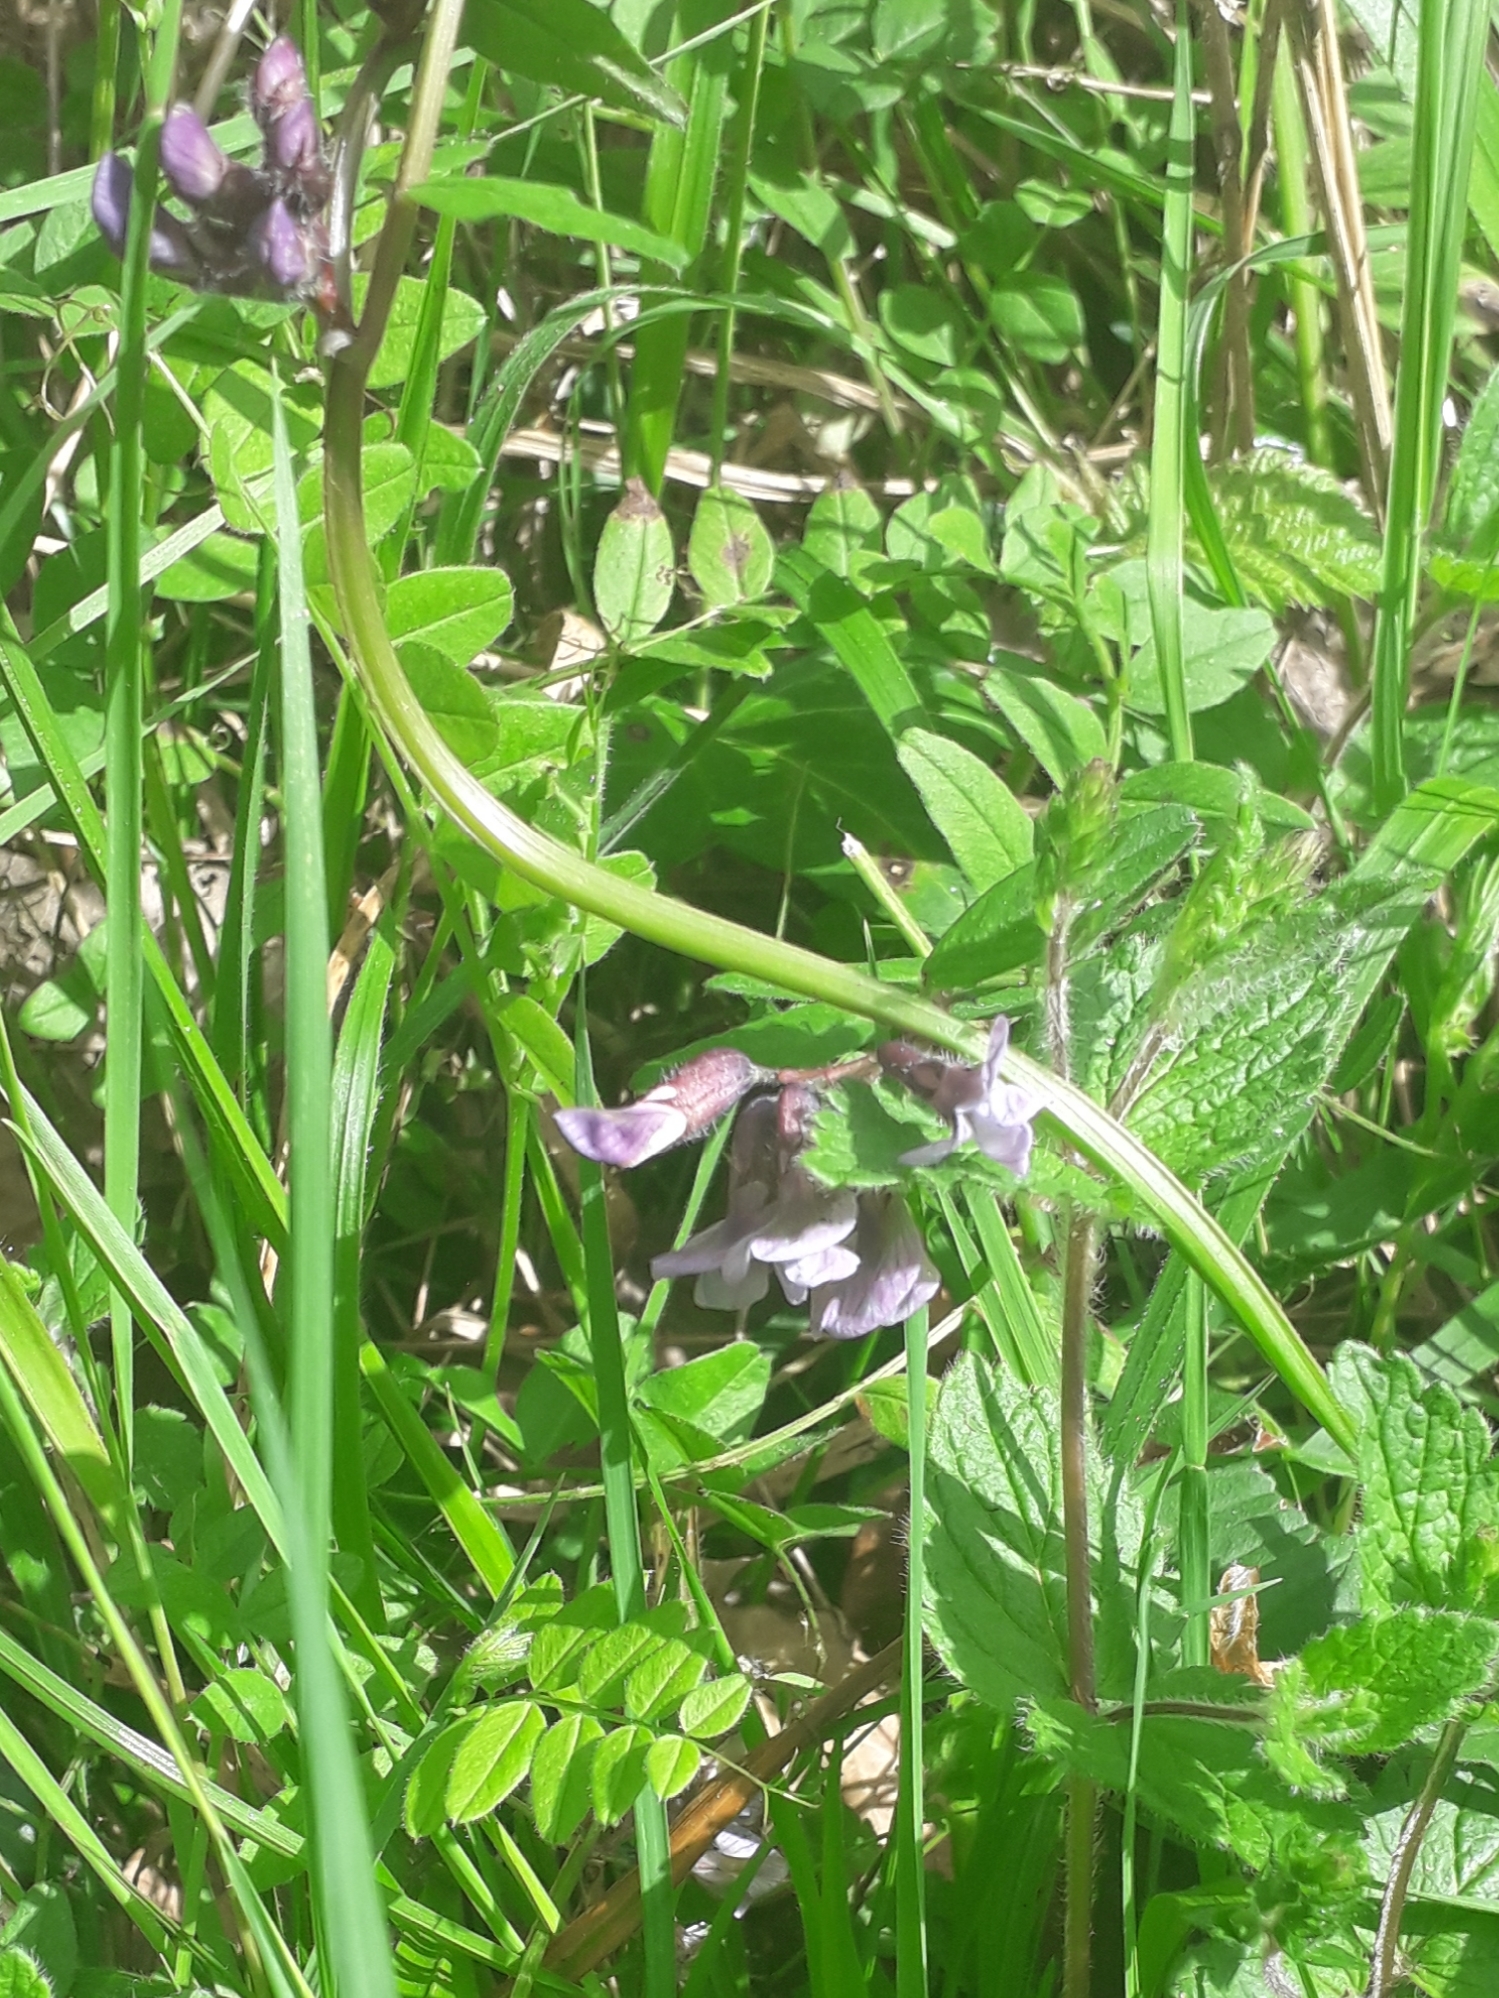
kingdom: Plantae
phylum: Tracheophyta
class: Magnoliopsida
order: Fabales
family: Fabaceae
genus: Vicia
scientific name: Vicia sepium
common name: Bush vetch
